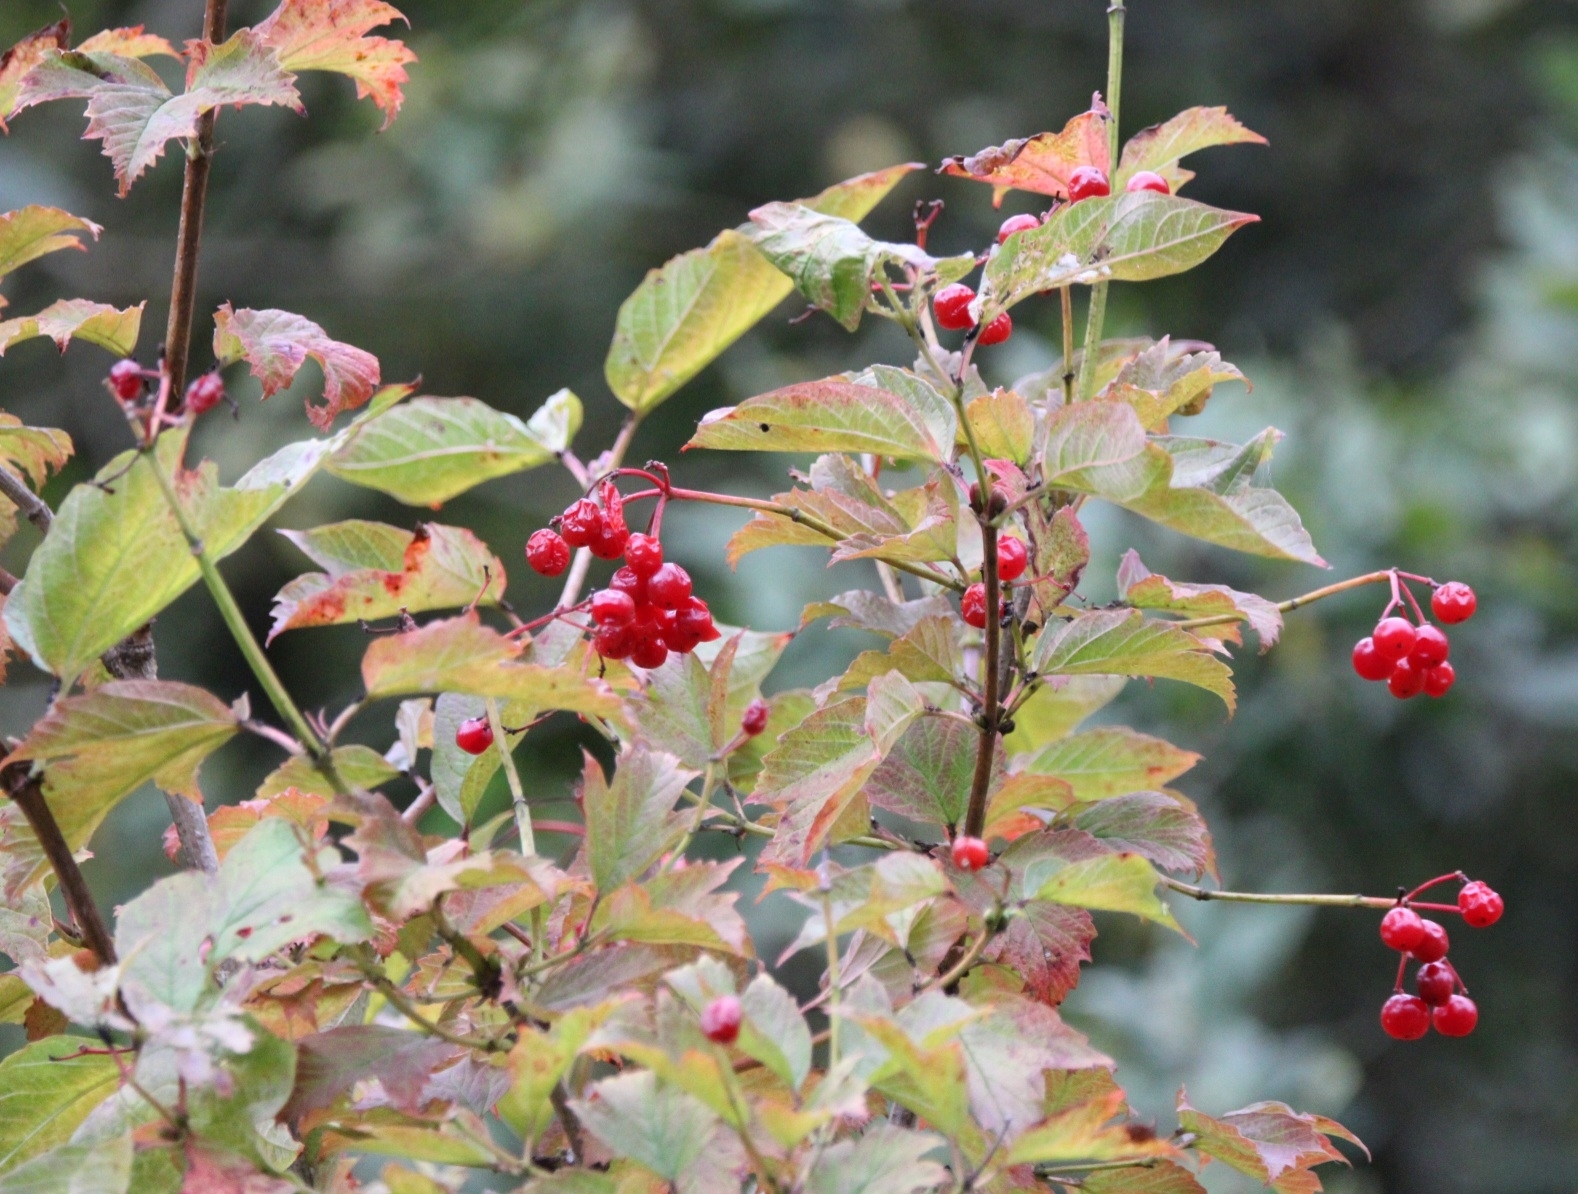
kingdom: Plantae
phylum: Tracheophyta
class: Magnoliopsida
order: Dipsacales
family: Viburnaceae
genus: Viburnum
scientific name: Viburnum opulus
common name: Guelder-rose
